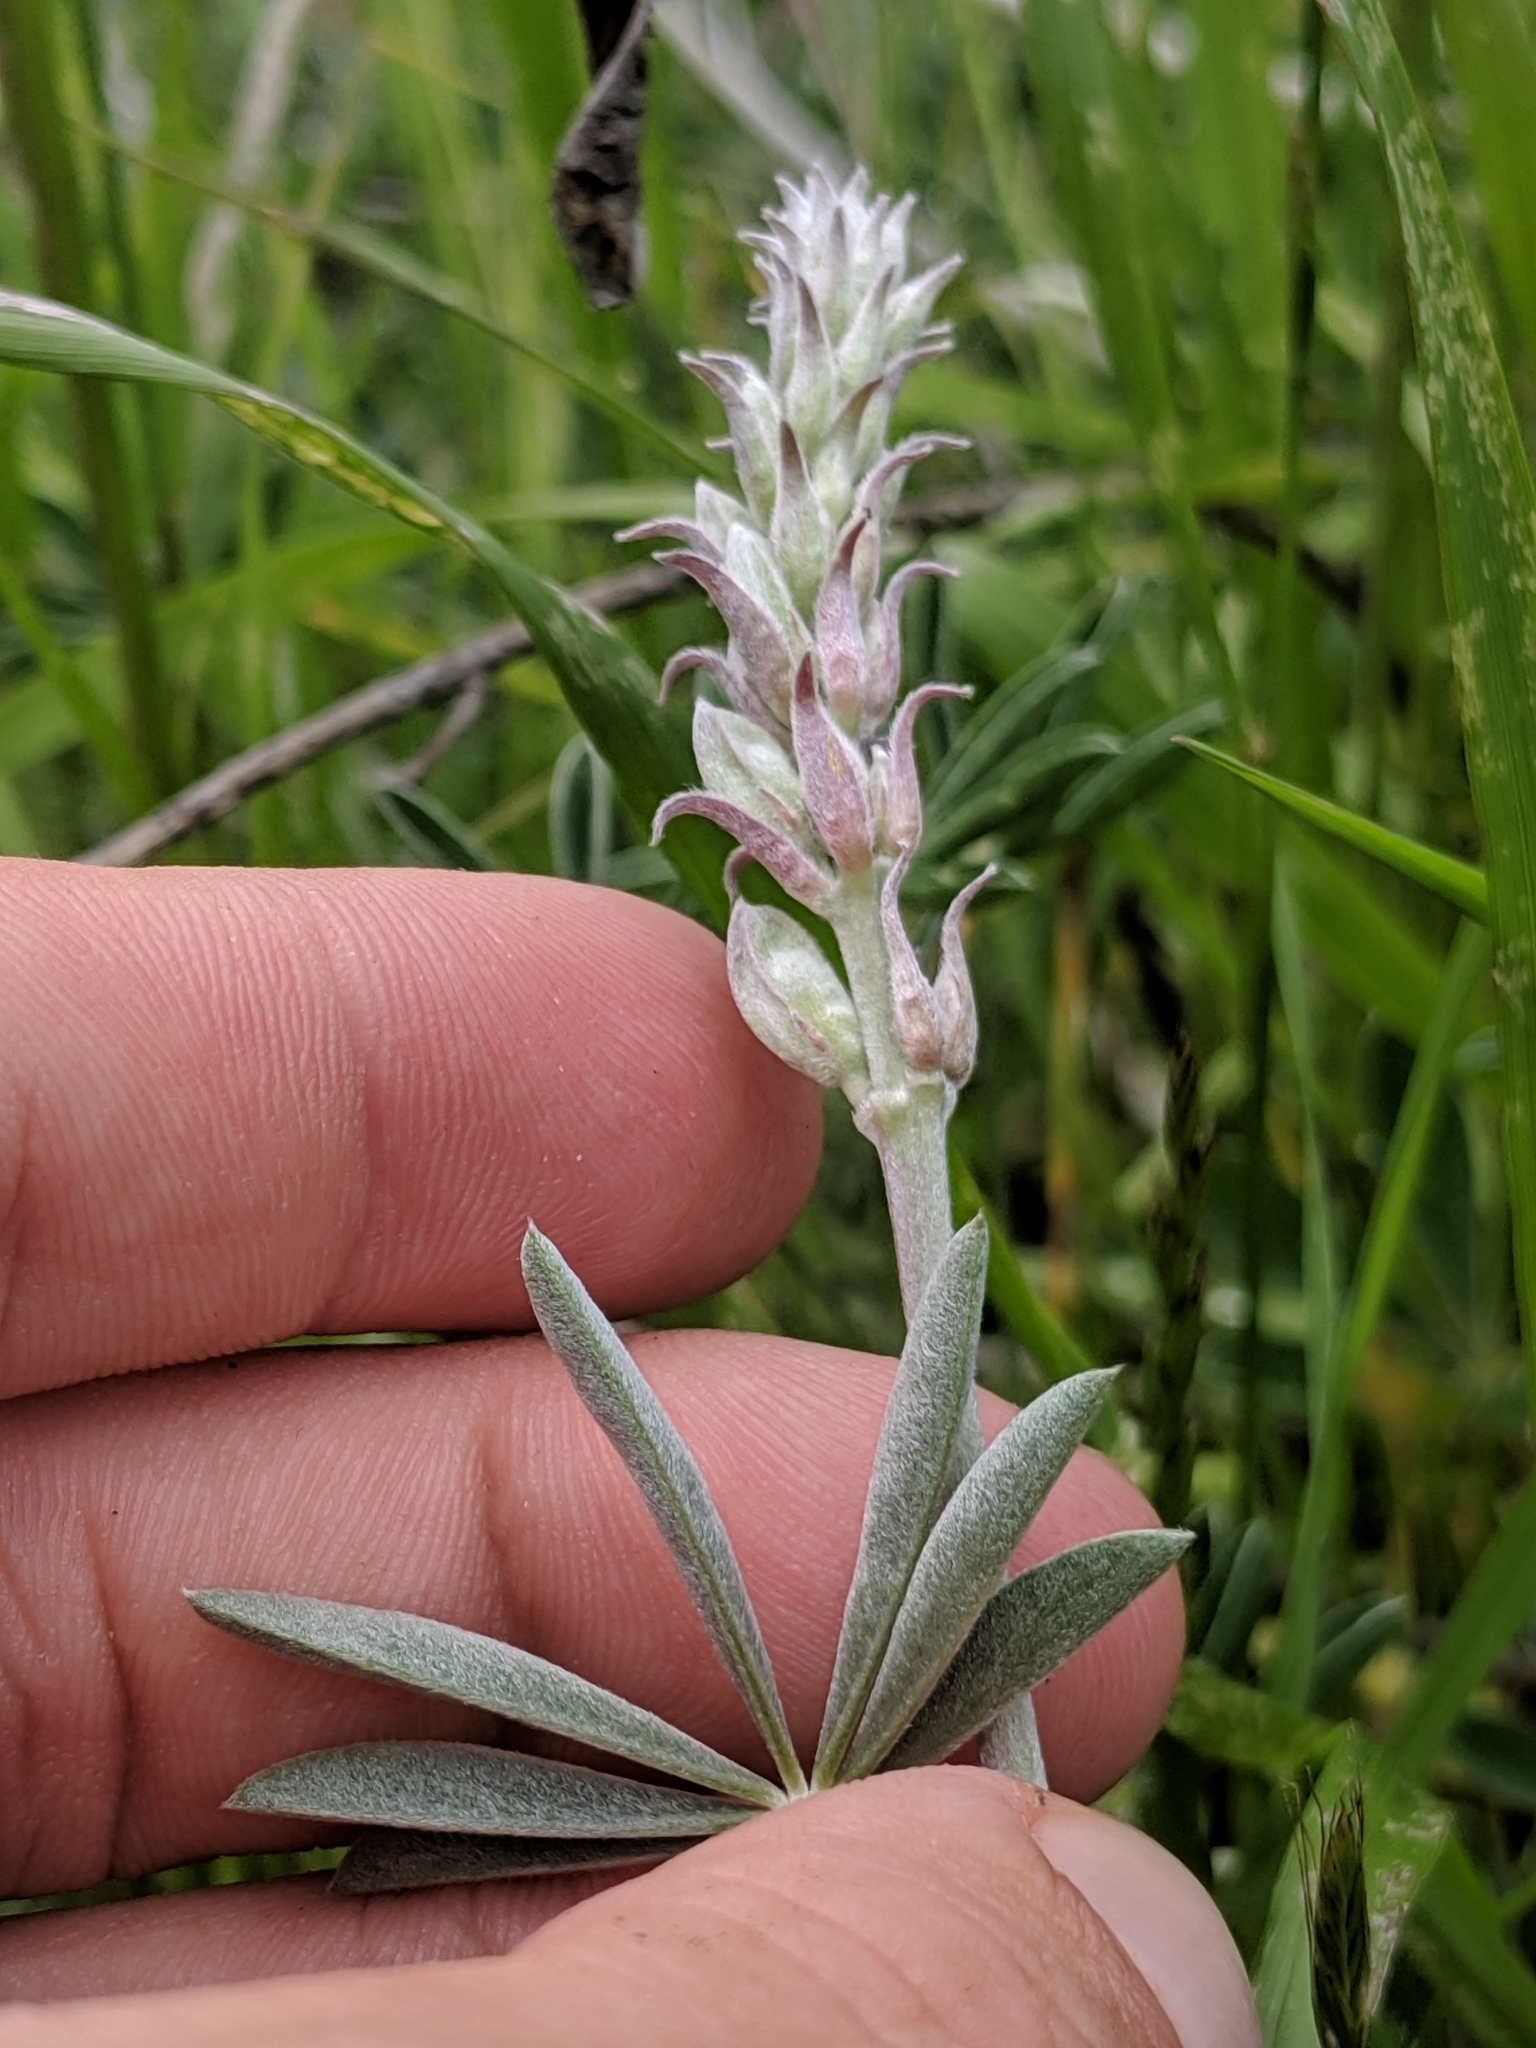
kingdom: Plantae
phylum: Tracheophyta
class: Magnoliopsida
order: Fabales
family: Fabaceae
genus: Lupinus
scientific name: Lupinus albifrons
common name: Foothill lupine
